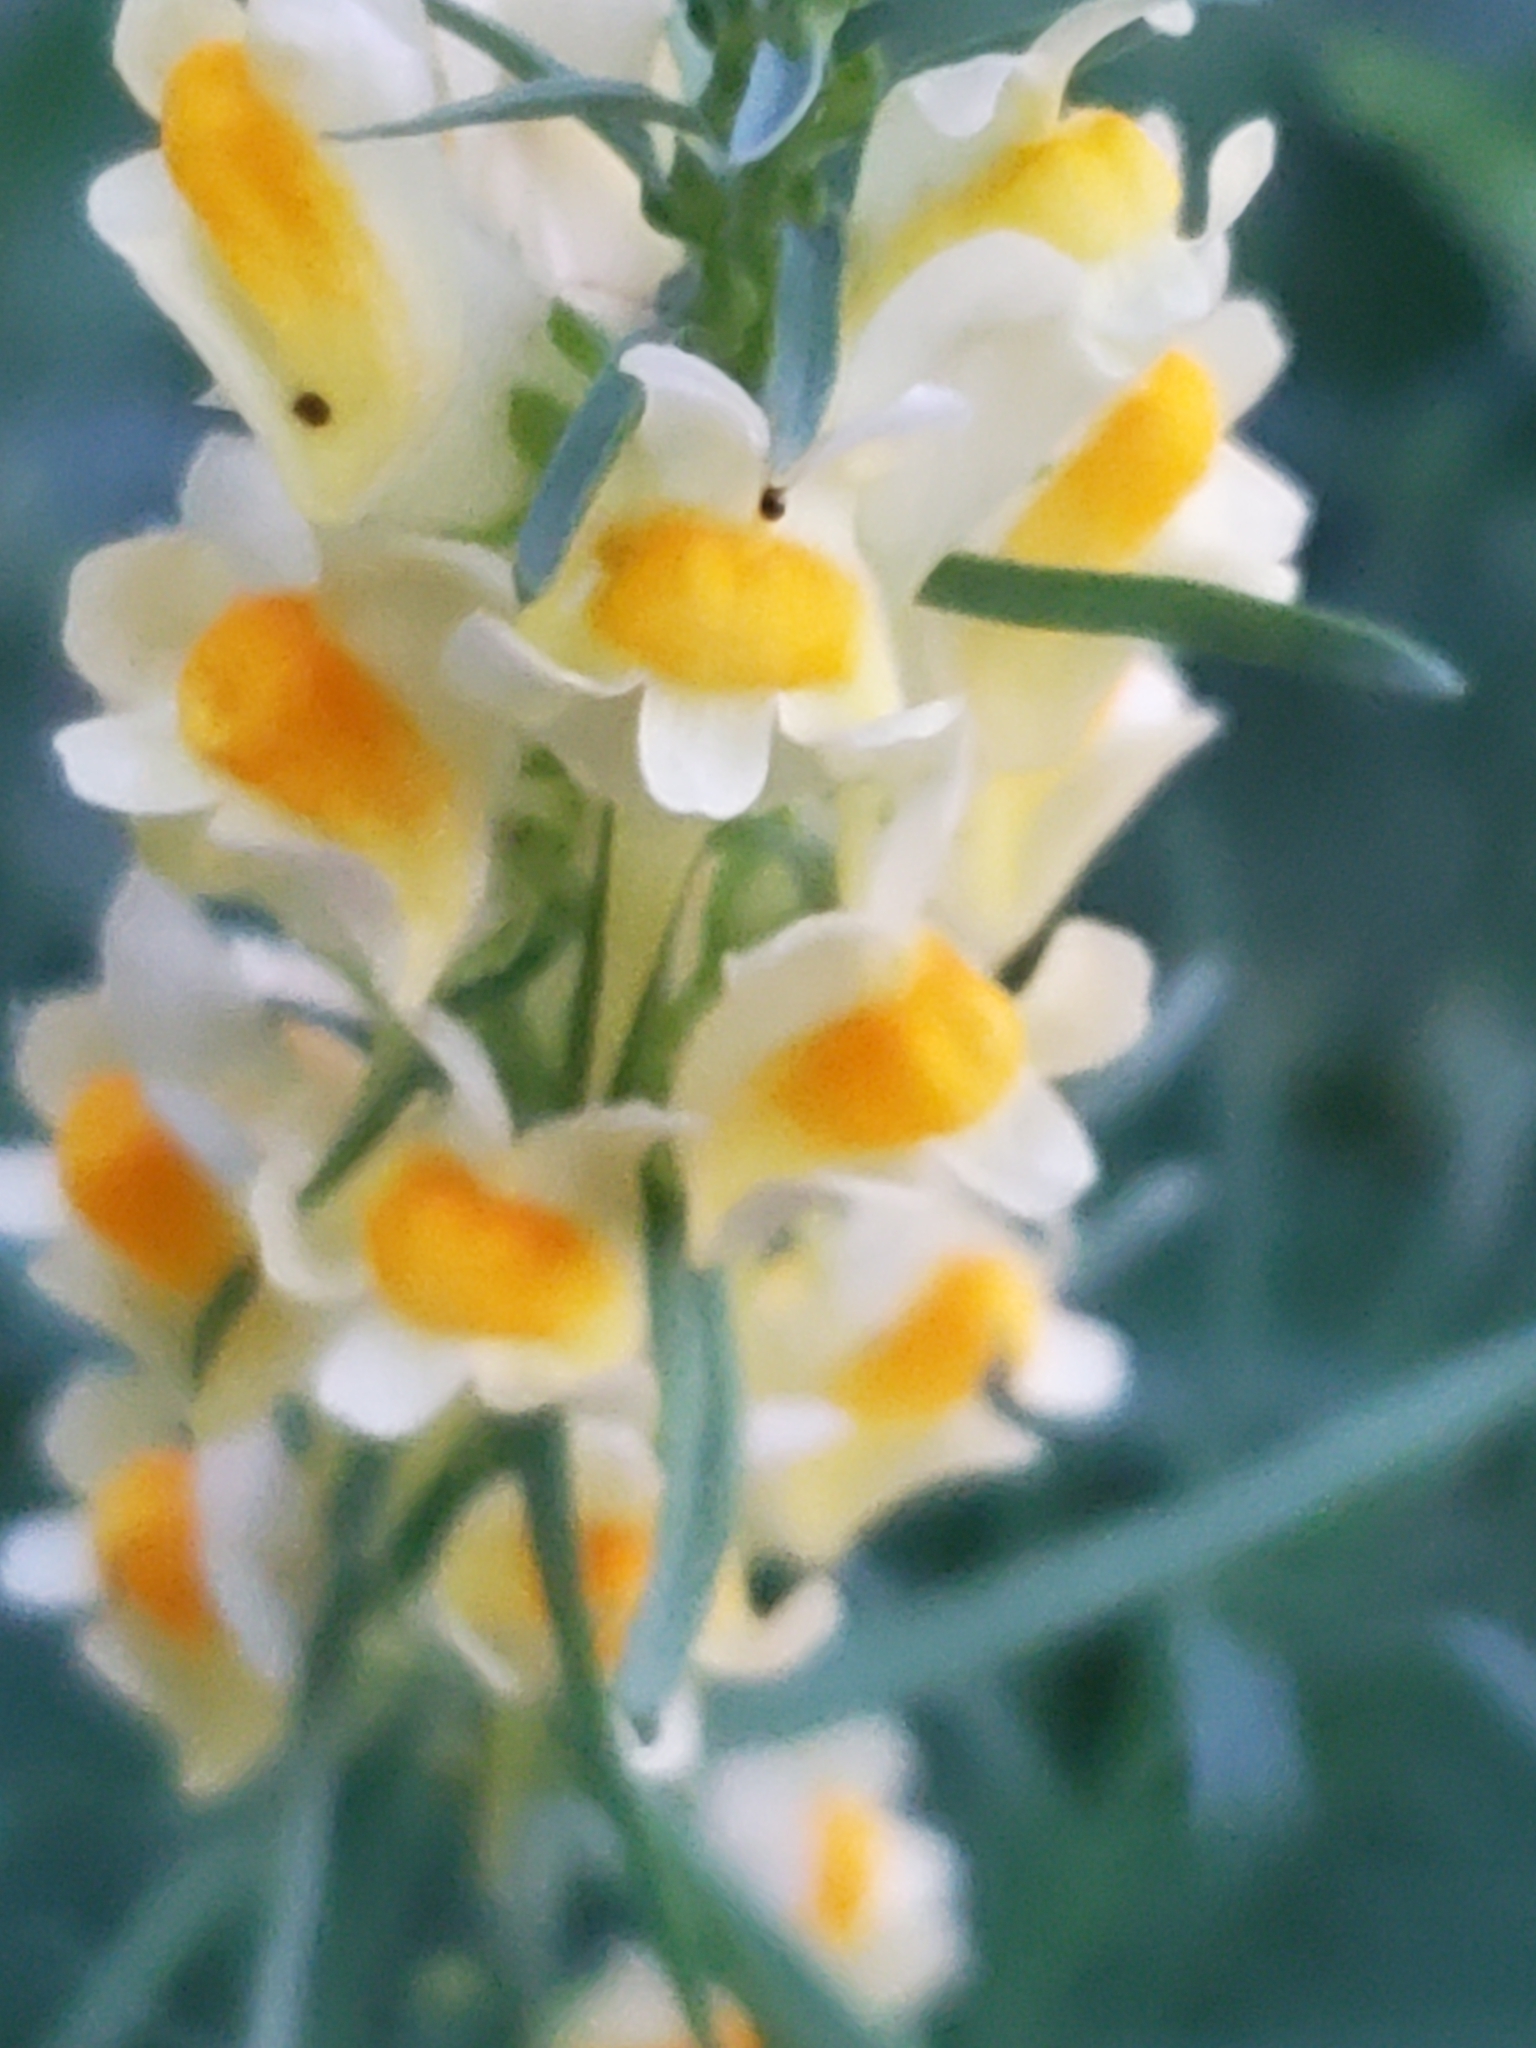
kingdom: Plantae
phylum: Tracheophyta
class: Magnoliopsida
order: Lamiales
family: Plantaginaceae
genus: Linaria
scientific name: Linaria vulgaris
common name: Butter and eggs
